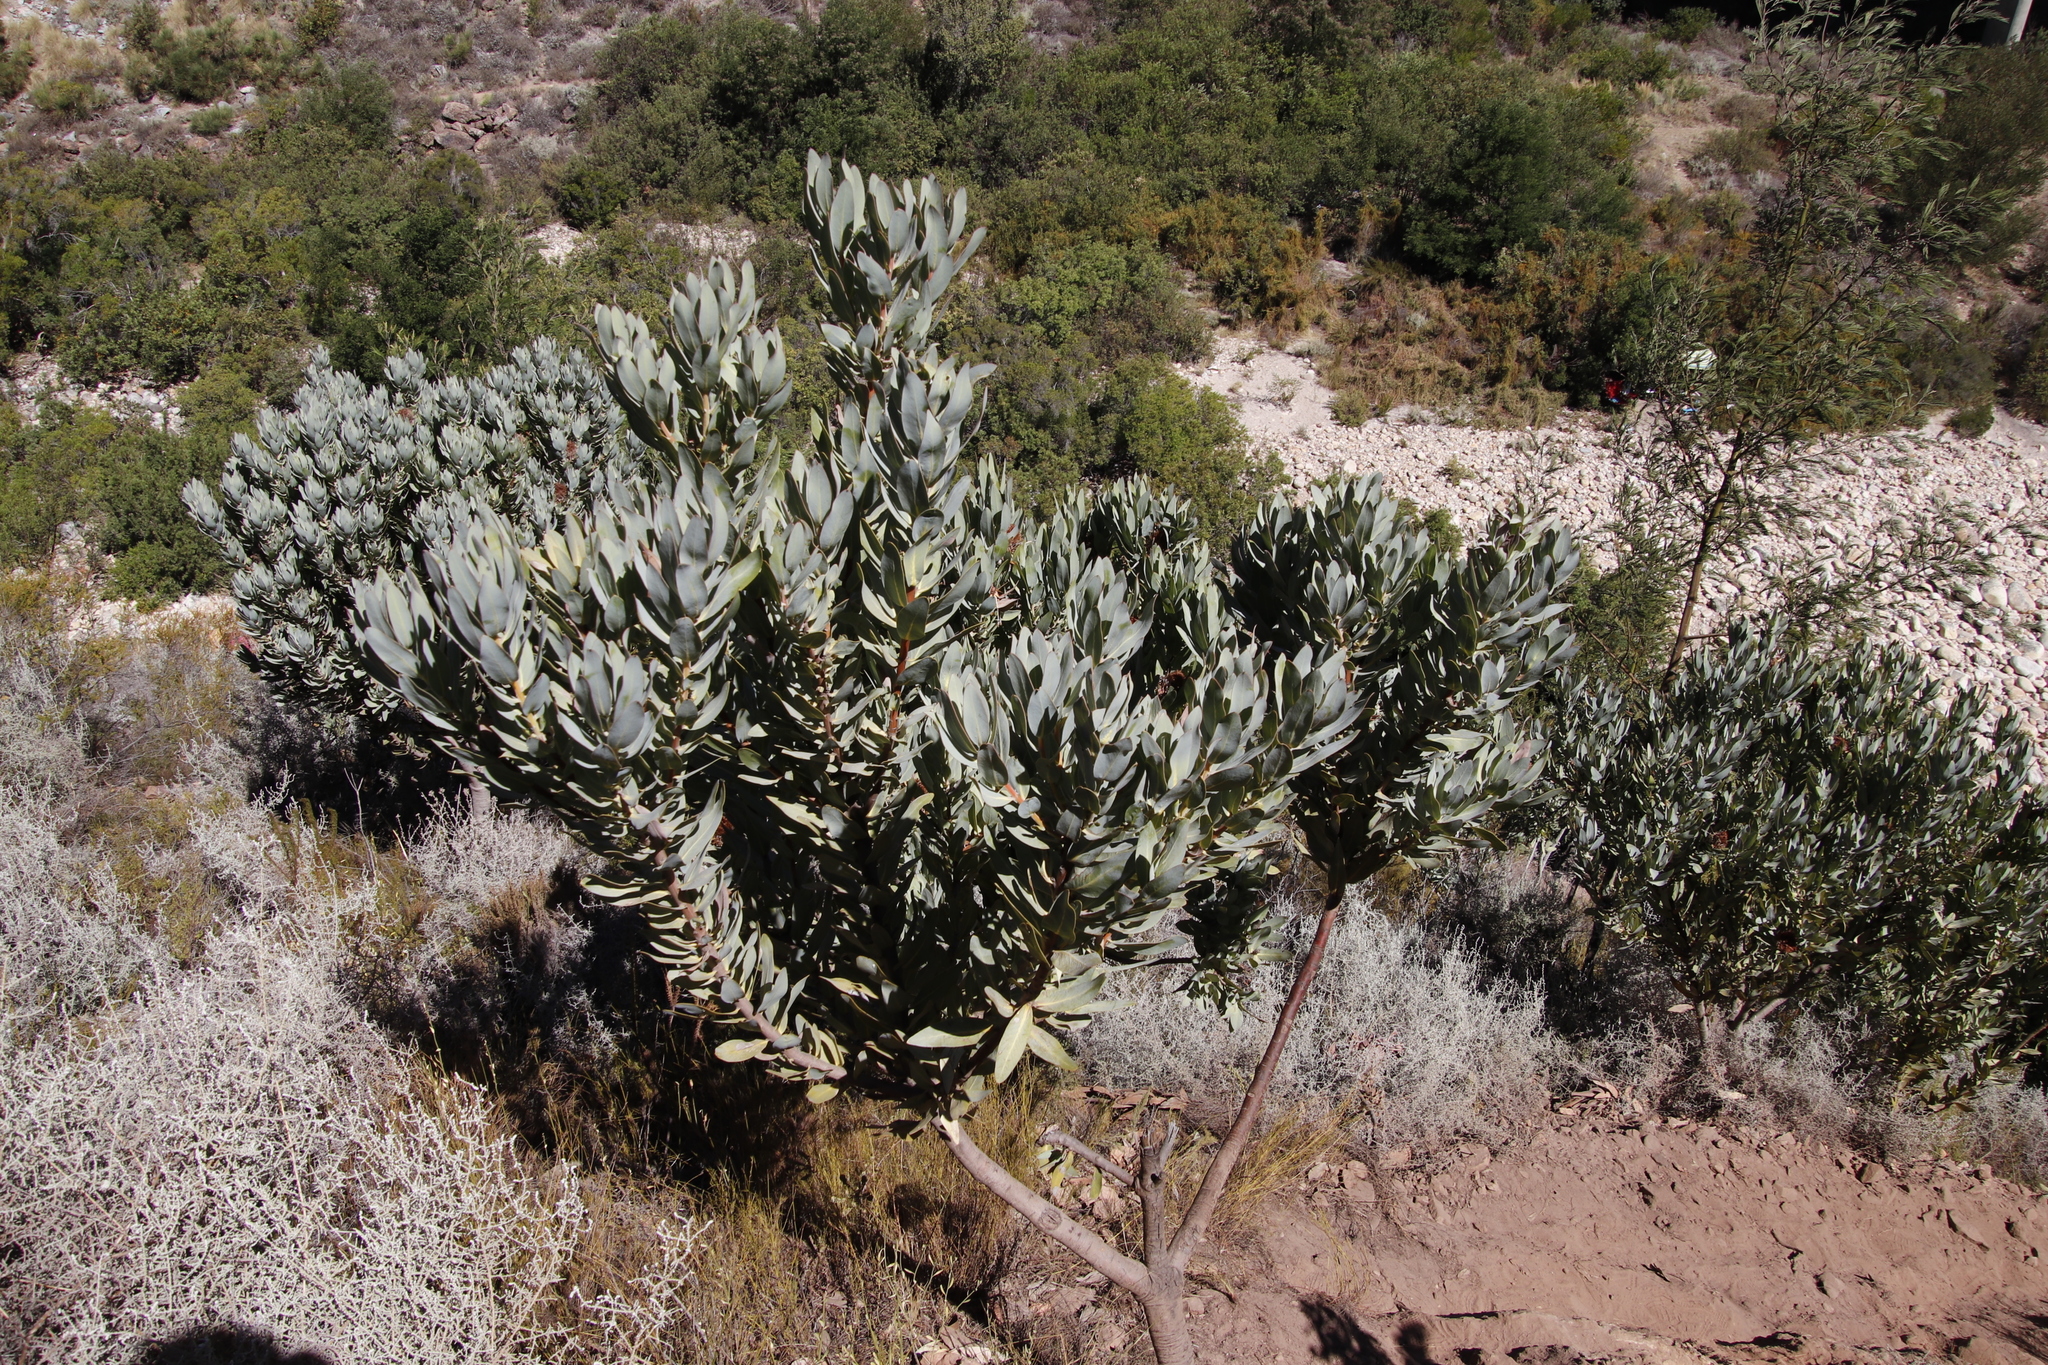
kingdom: Plantae
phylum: Tracheophyta
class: Magnoliopsida
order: Proteales
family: Proteaceae
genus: Protea
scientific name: Protea laurifolia
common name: Grey-leaf sugarbsh
